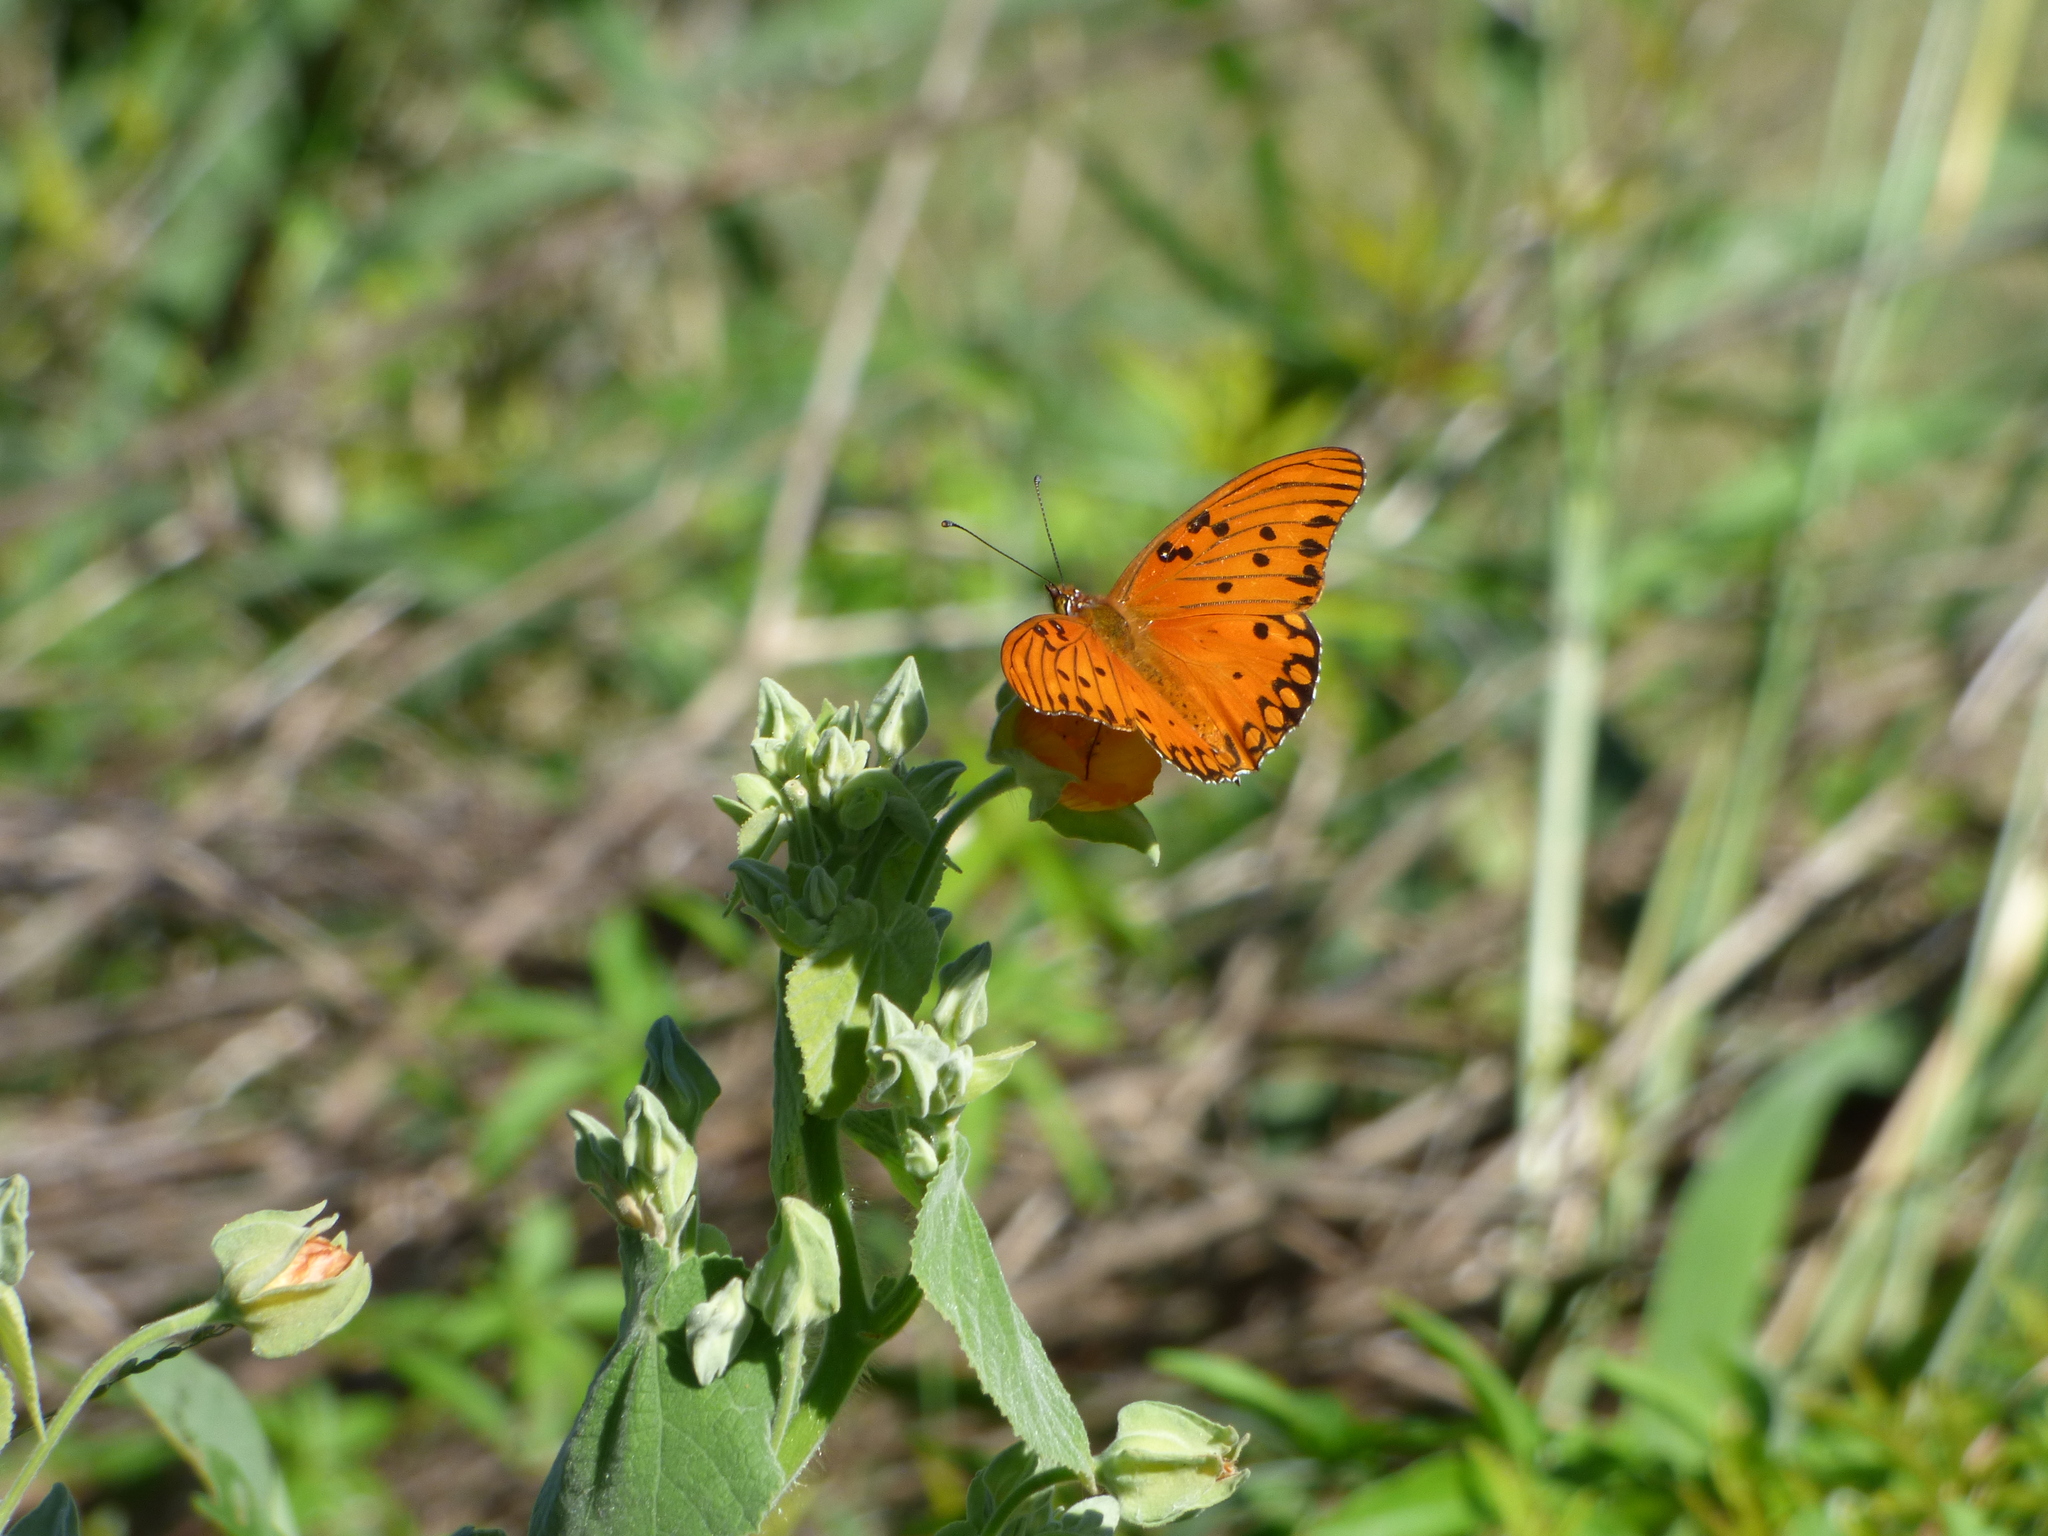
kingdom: Animalia
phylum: Arthropoda
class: Insecta
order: Lepidoptera
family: Nymphalidae
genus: Dione
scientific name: Dione vanillae
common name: Gulf fritillary
